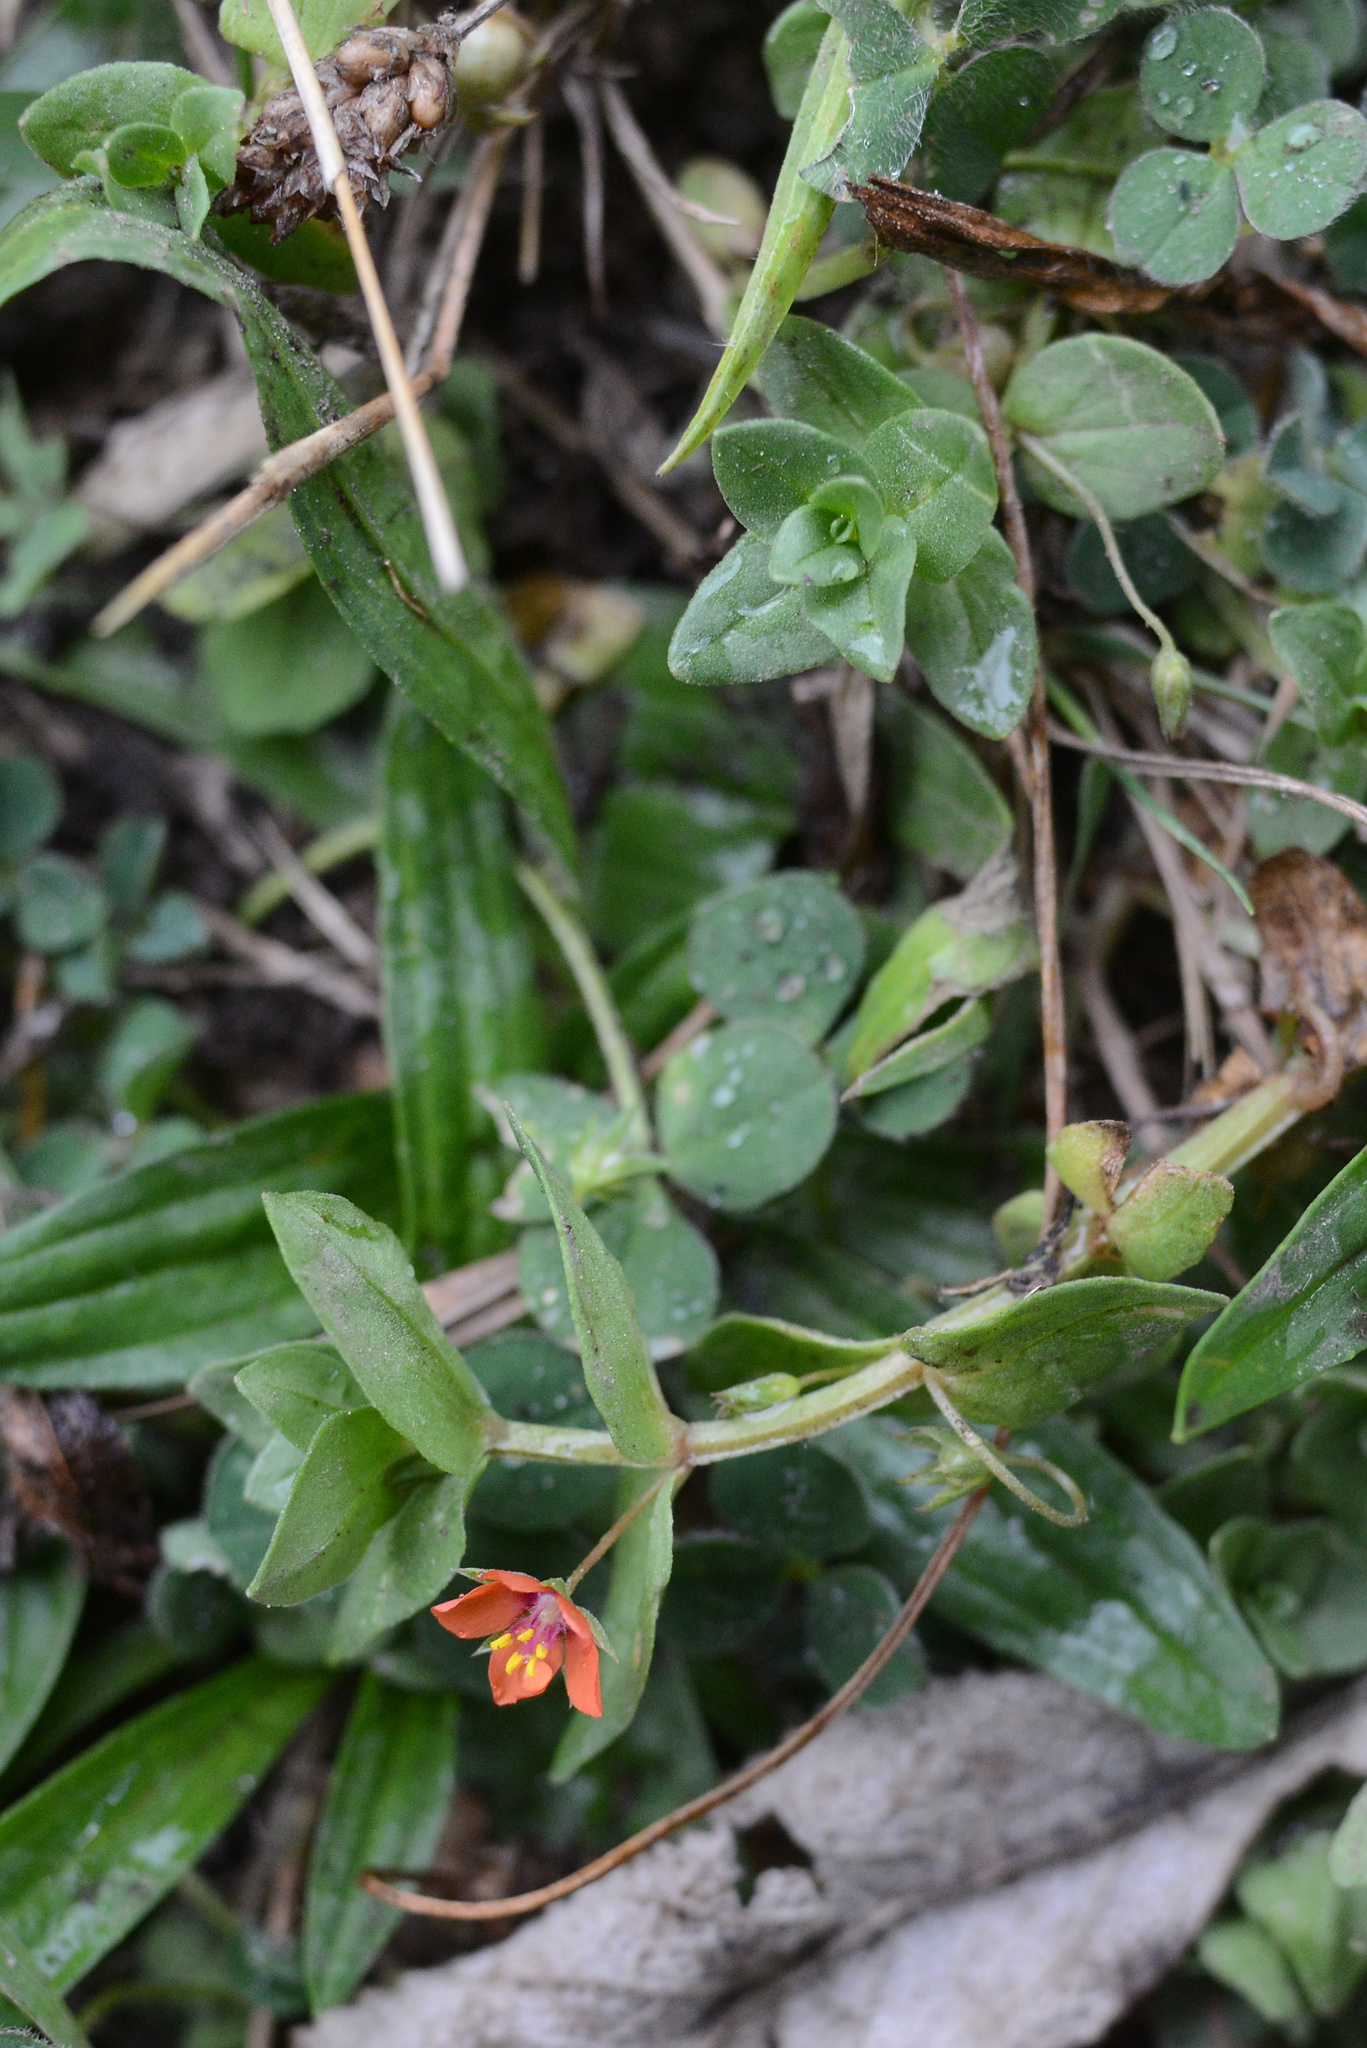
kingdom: Plantae
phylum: Tracheophyta
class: Magnoliopsida
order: Ericales
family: Primulaceae
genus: Lysimachia
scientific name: Lysimachia arvensis
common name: Scarlet pimpernel
